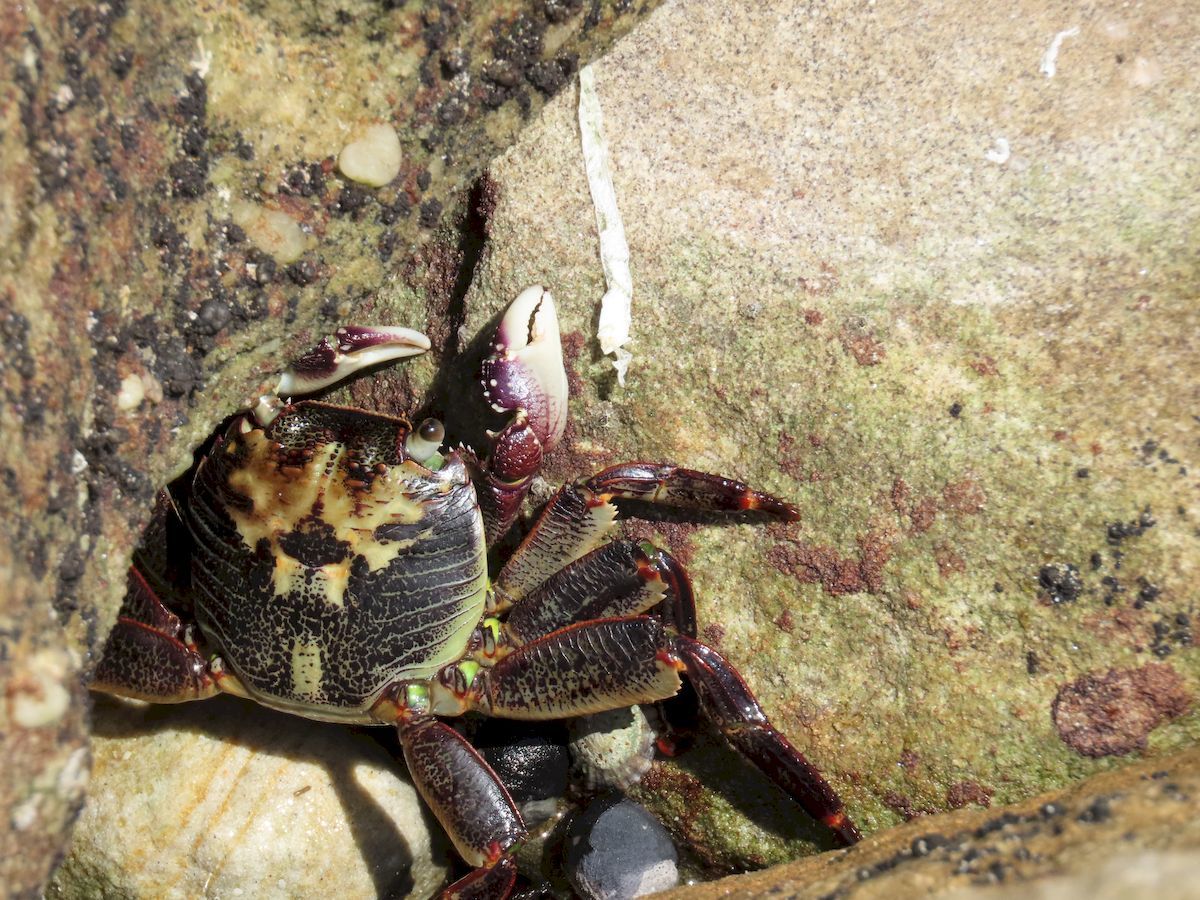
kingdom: Animalia
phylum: Arthropoda
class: Malacostraca
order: Decapoda
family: Grapsidae
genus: Leptograpsus
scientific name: Leptograpsus variegatus
